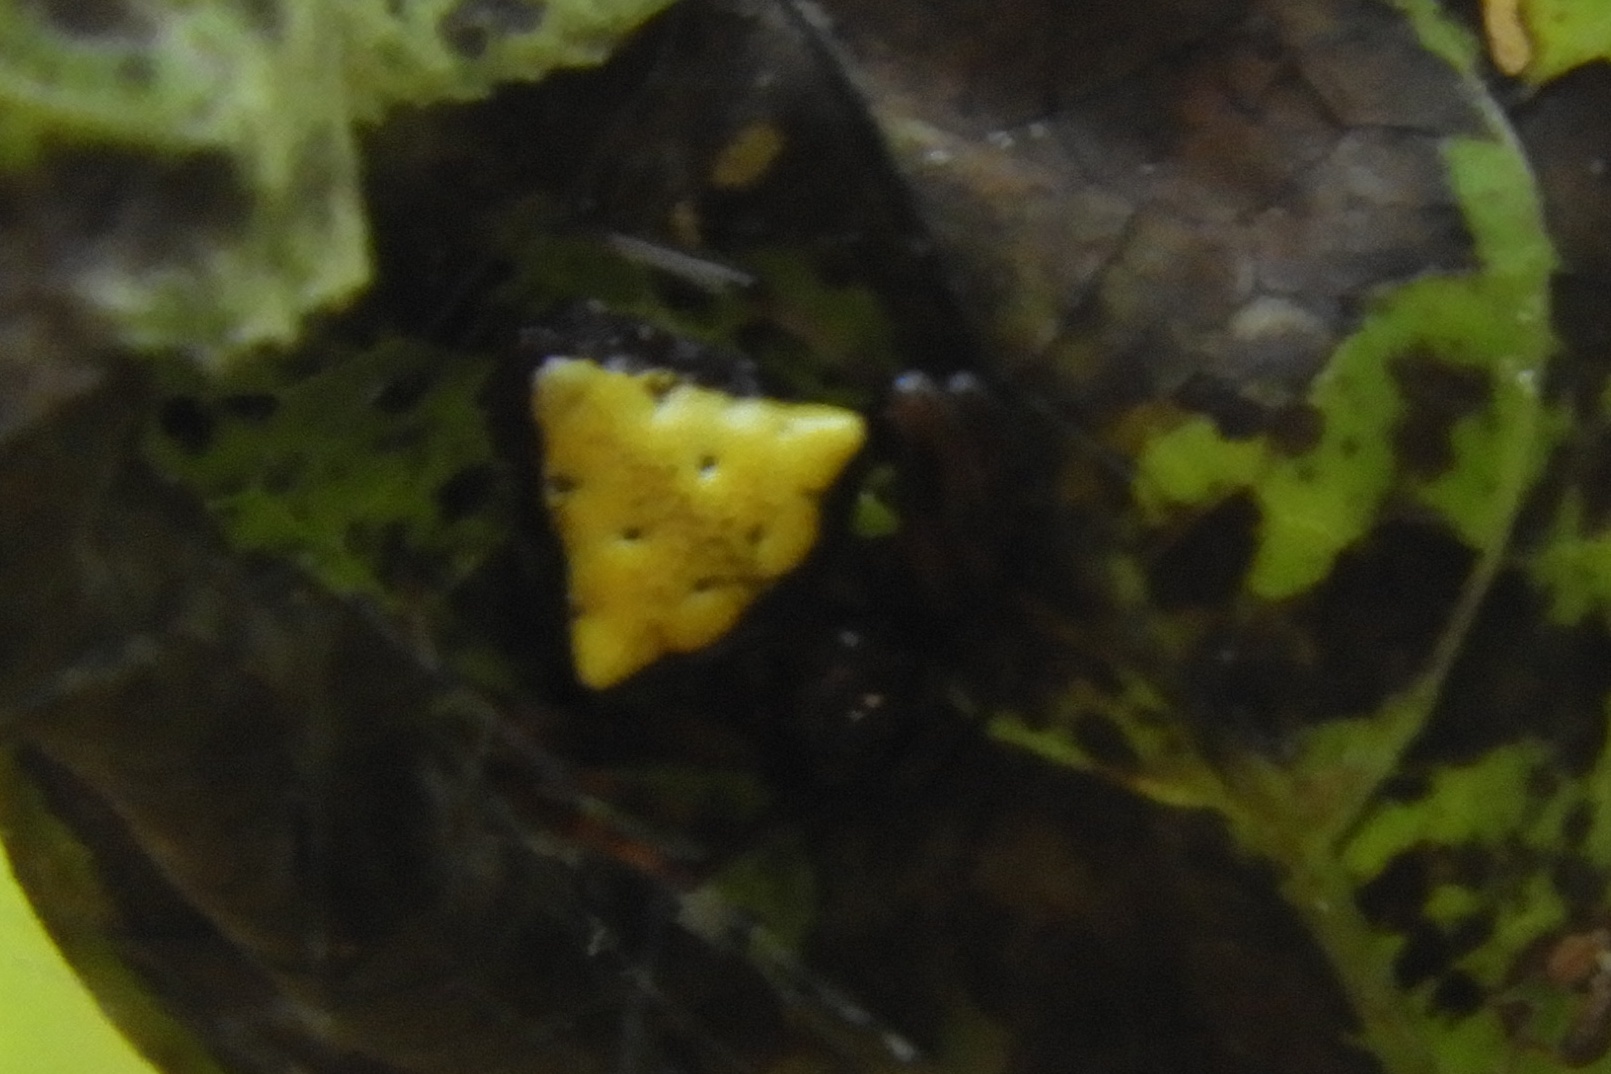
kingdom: Animalia
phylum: Arthropoda
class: Arachnida
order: Araneae
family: Araneidae
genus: Verrucosa
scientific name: Verrucosa arenata
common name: Orb weavers
